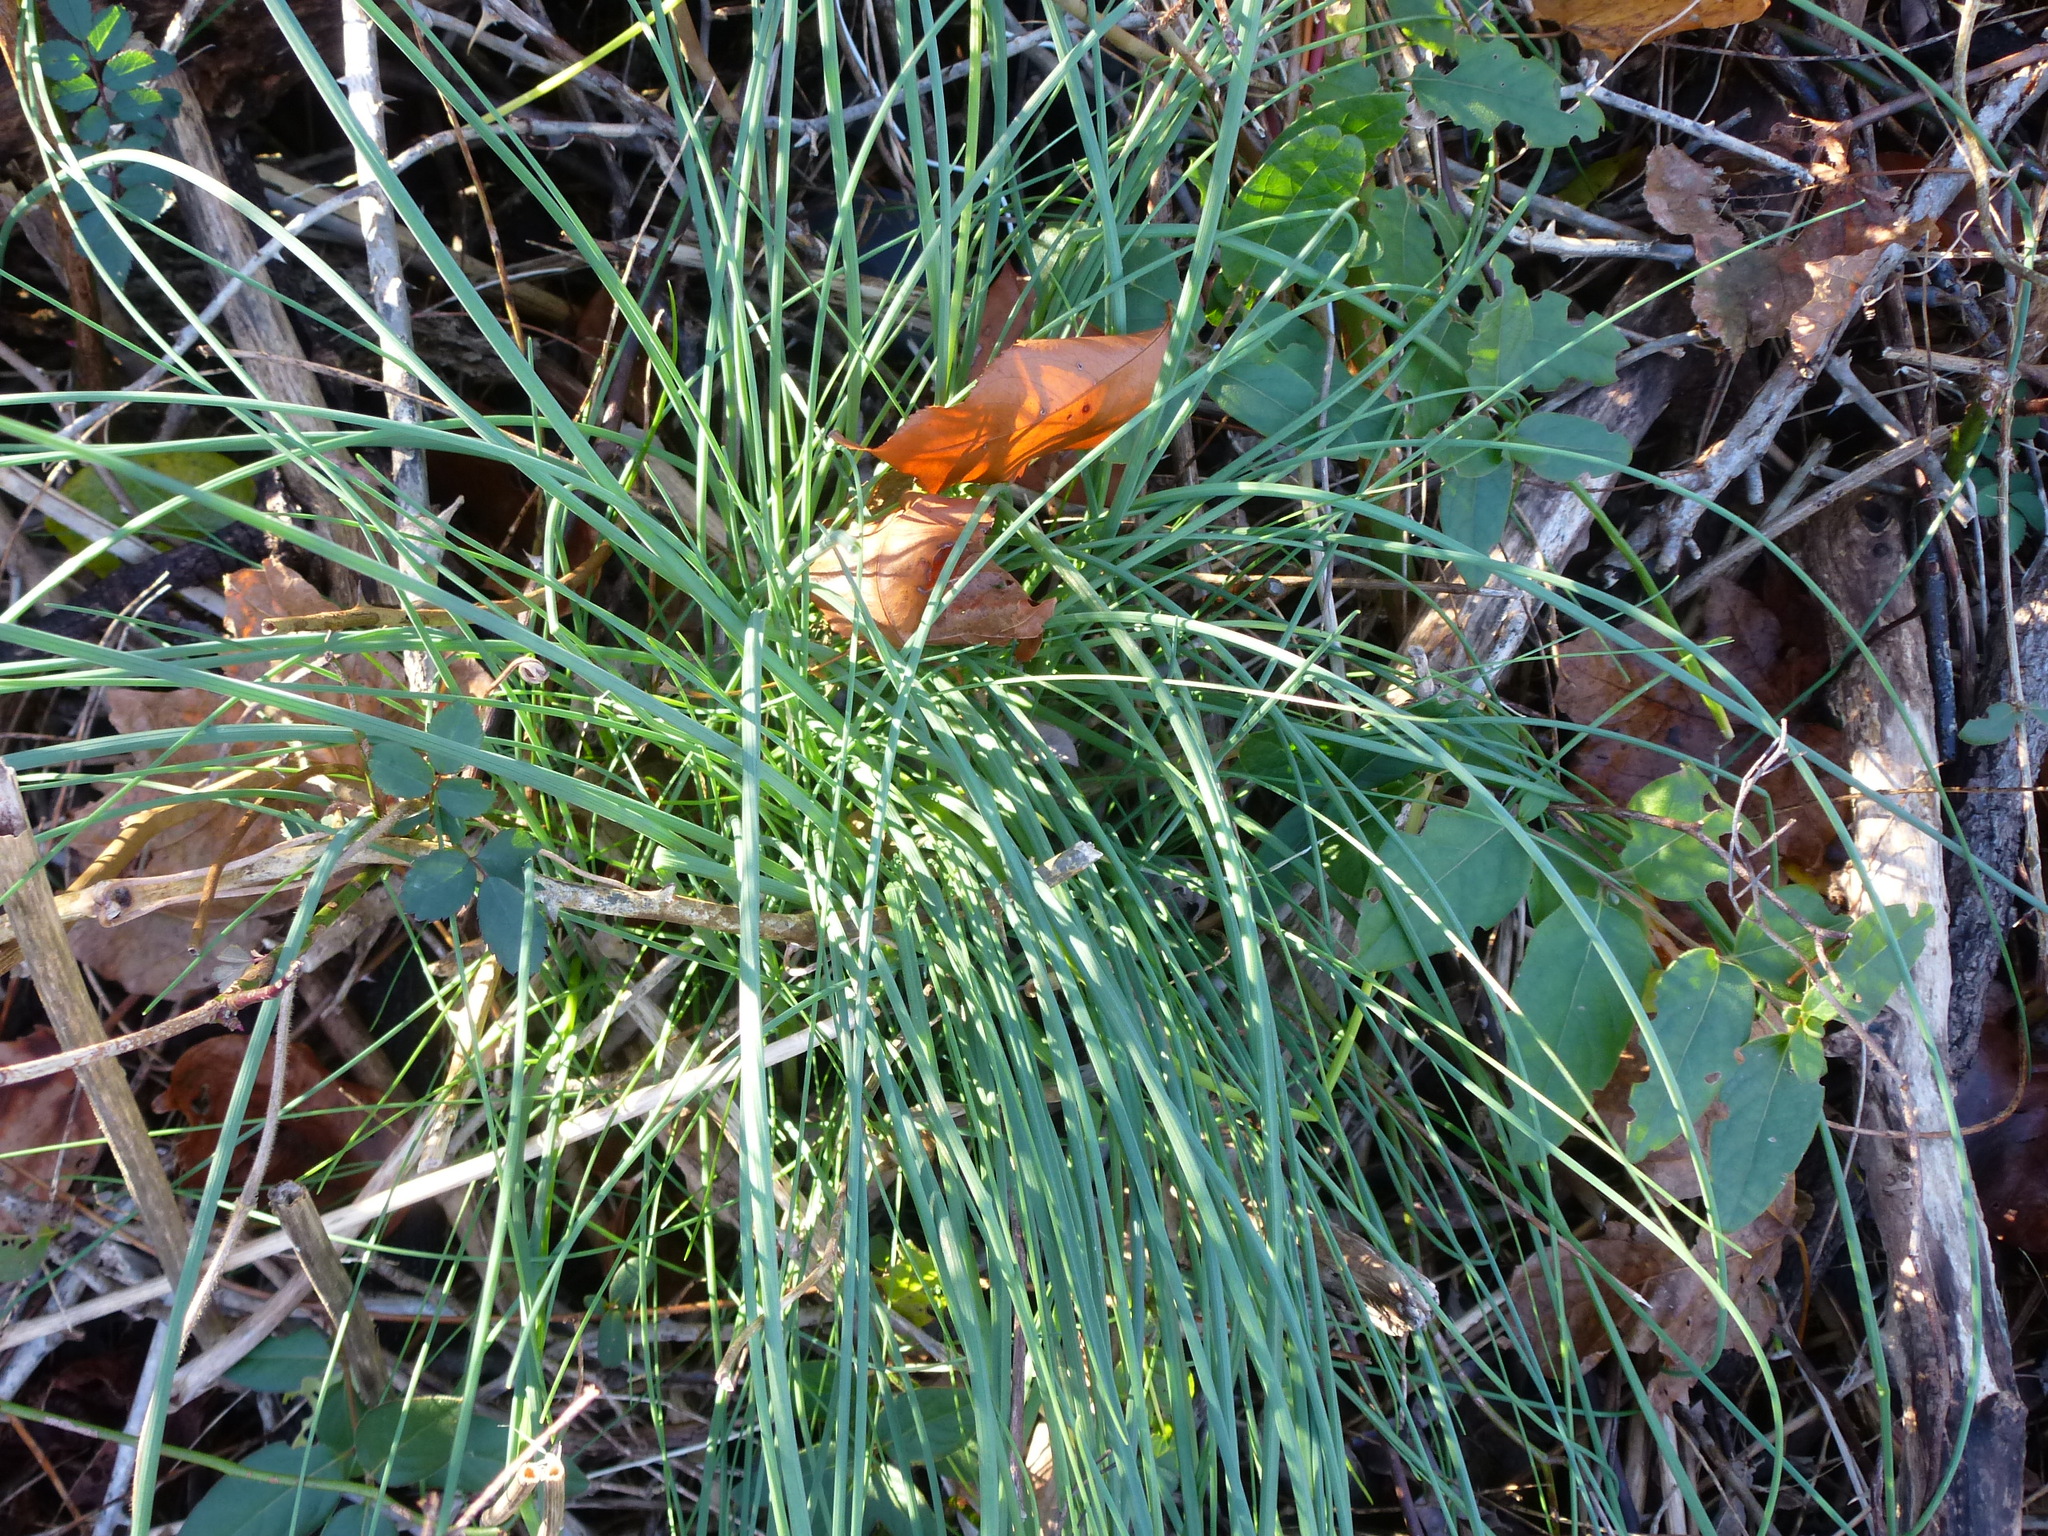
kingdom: Plantae
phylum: Tracheophyta
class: Liliopsida
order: Asparagales
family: Amaryllidaceae
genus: Allium
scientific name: Allium vineale
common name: Crow garlic
